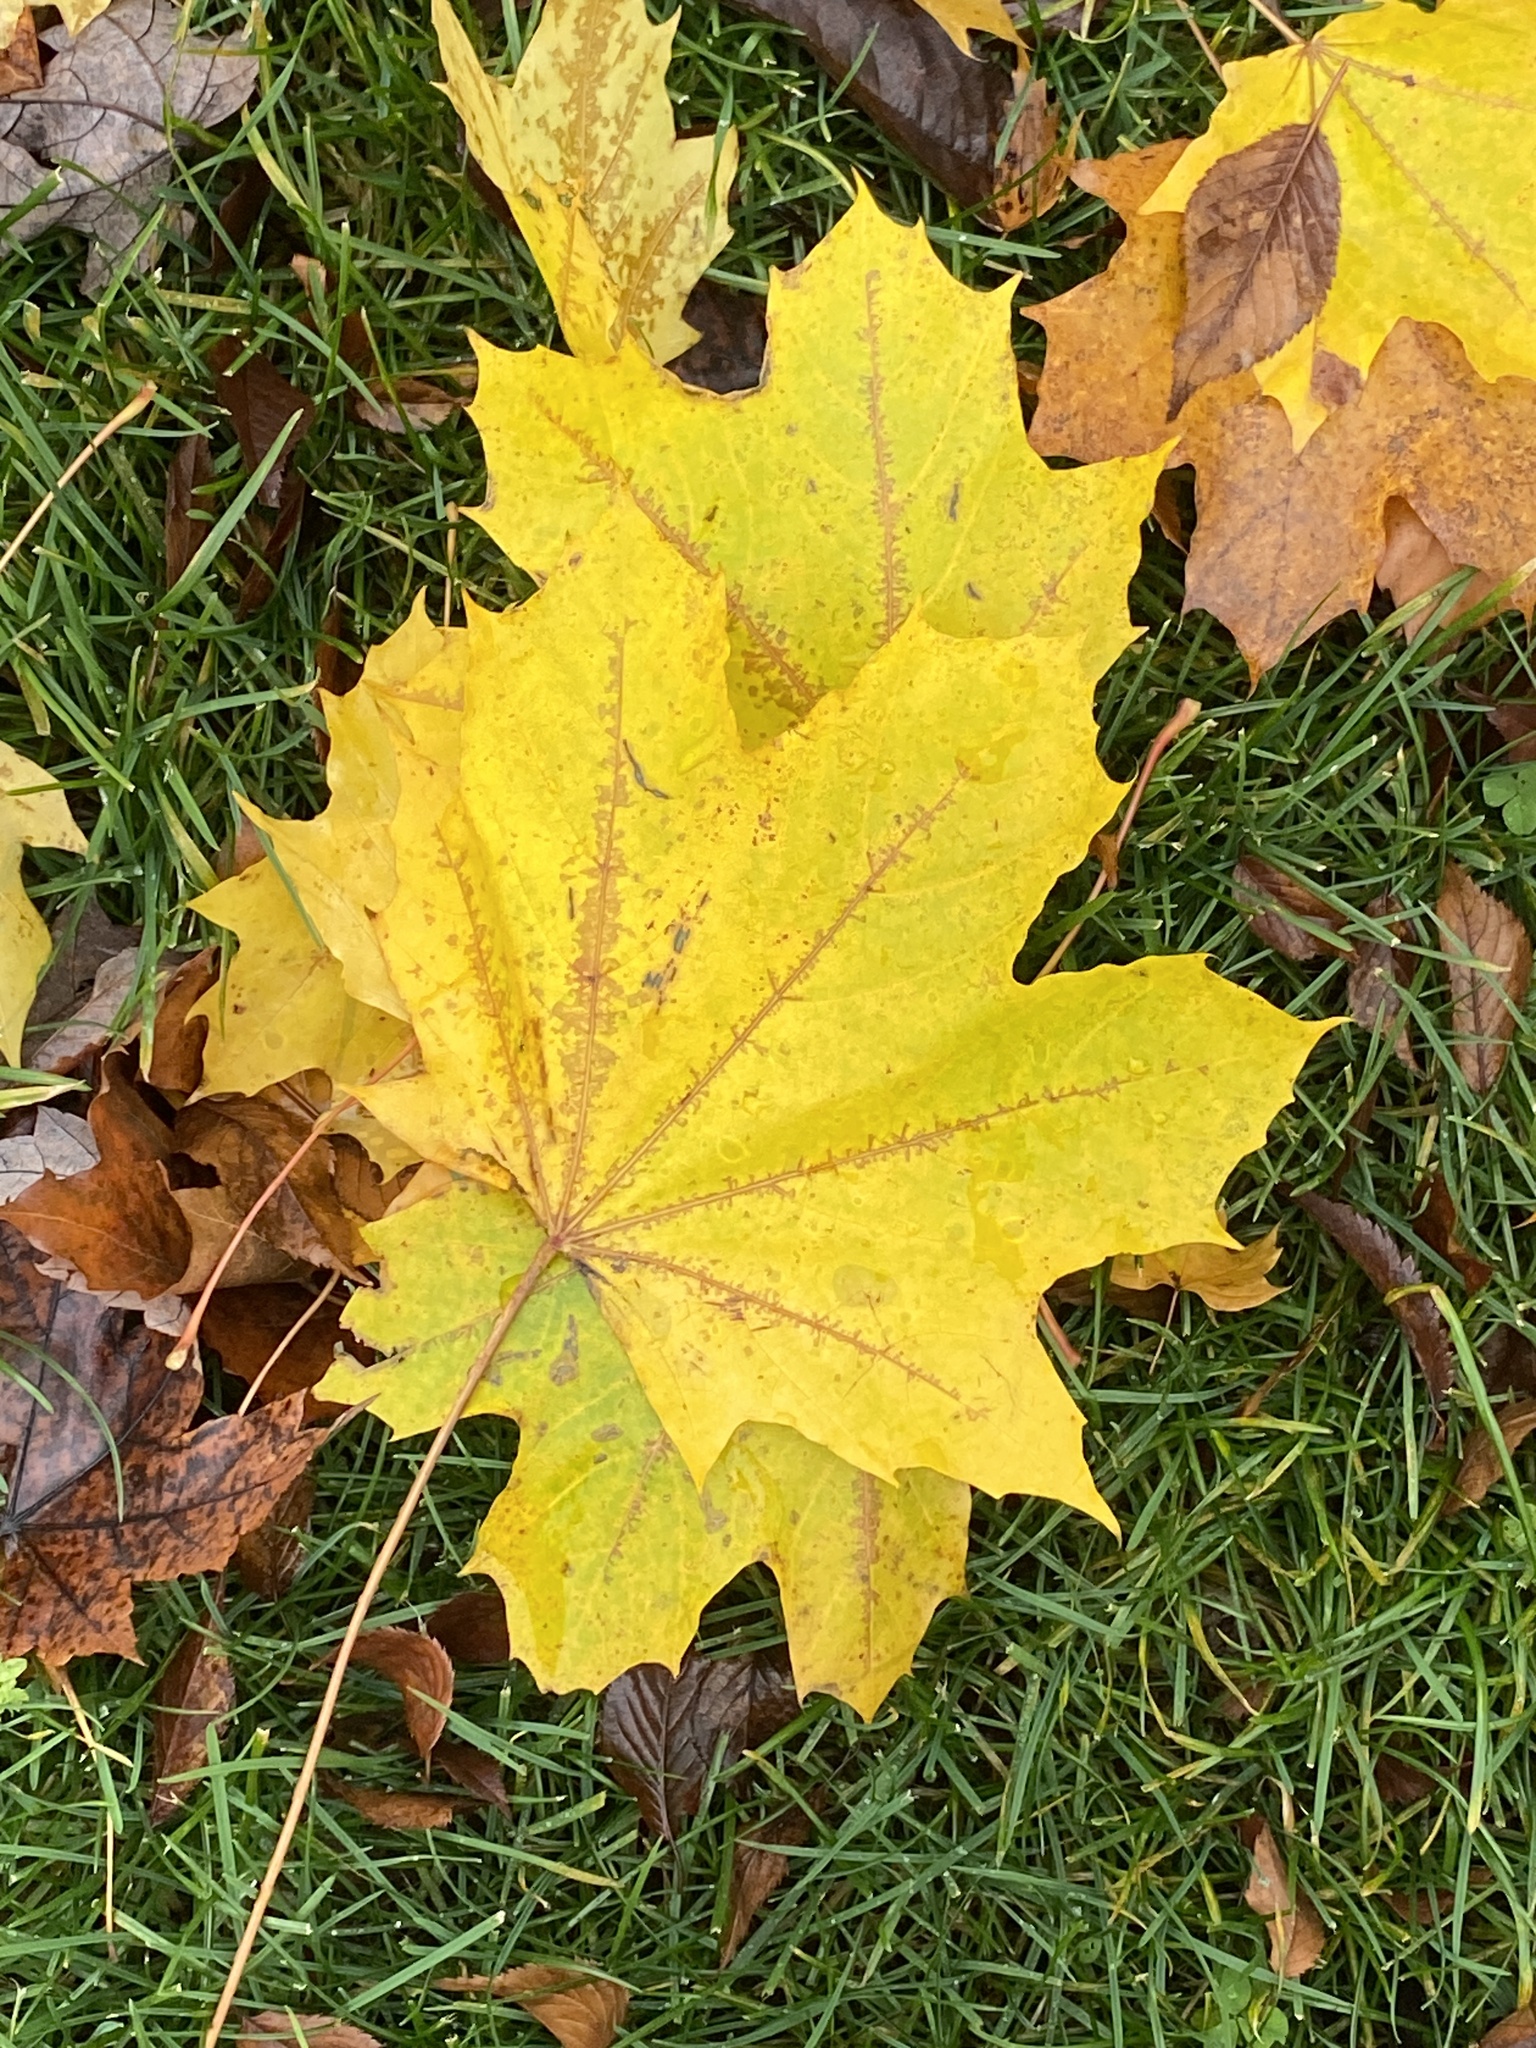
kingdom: Plantae
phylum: Tracheophyta
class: Magnoliopsida
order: Sapindales
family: Sapindaceae
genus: Acer
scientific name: Acer platanoides
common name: Norway maple
